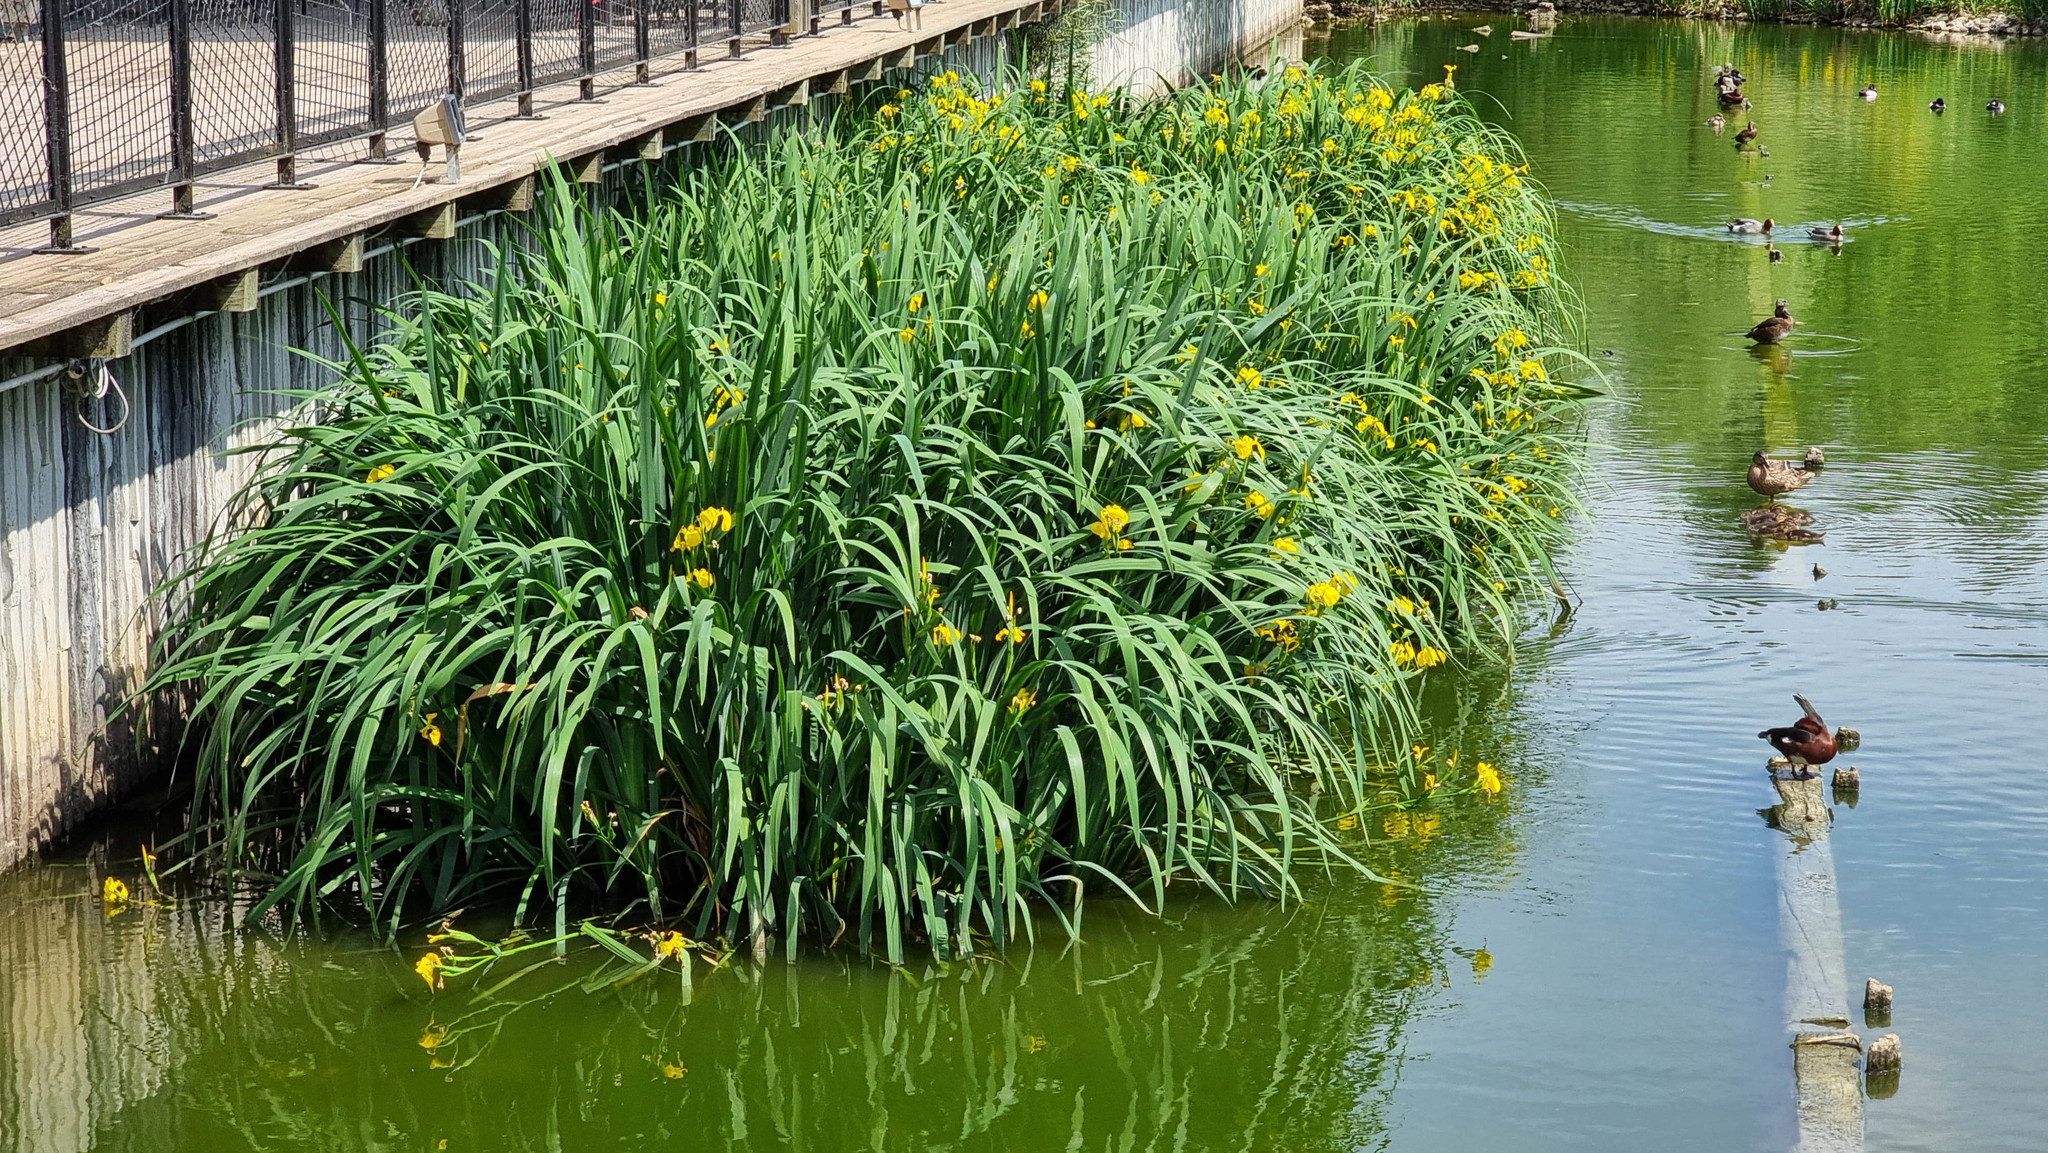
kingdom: Plantae
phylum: Tracheophyta
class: Liliopsida
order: Asparagales
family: Iridaceae
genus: Iris
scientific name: Iris pseudacorus
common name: Yellow flag
